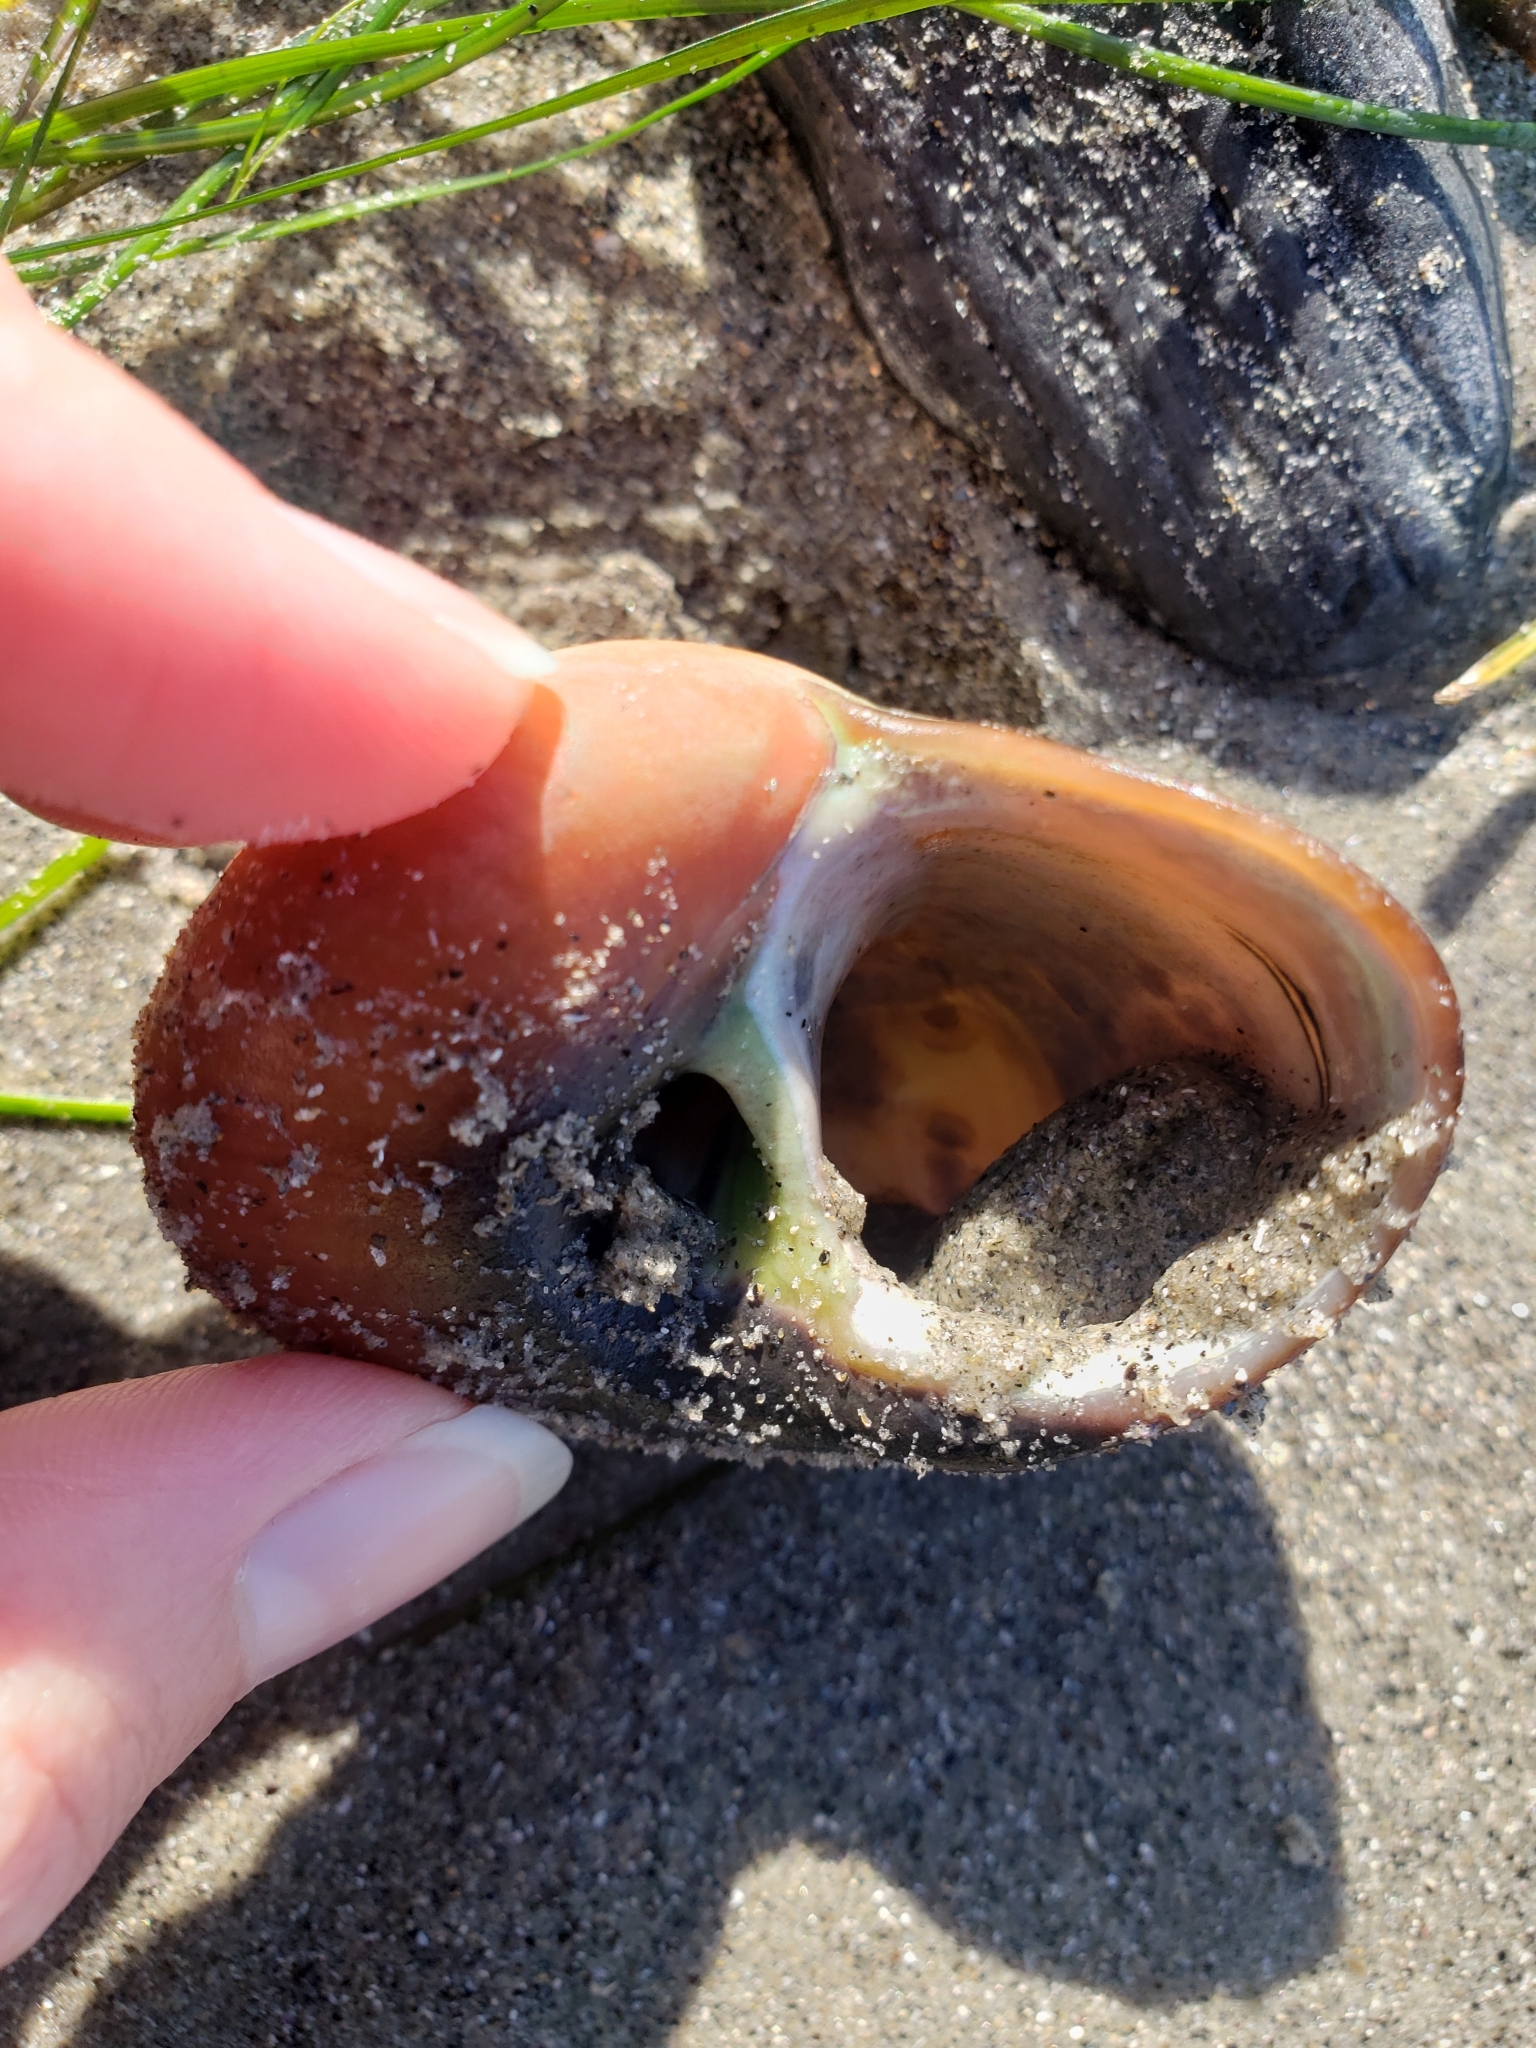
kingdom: Animalia
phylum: Mollusca
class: Gastropoda
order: Trochida
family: Tegulidae
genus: Norrisia
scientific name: Norrisia norrisii
